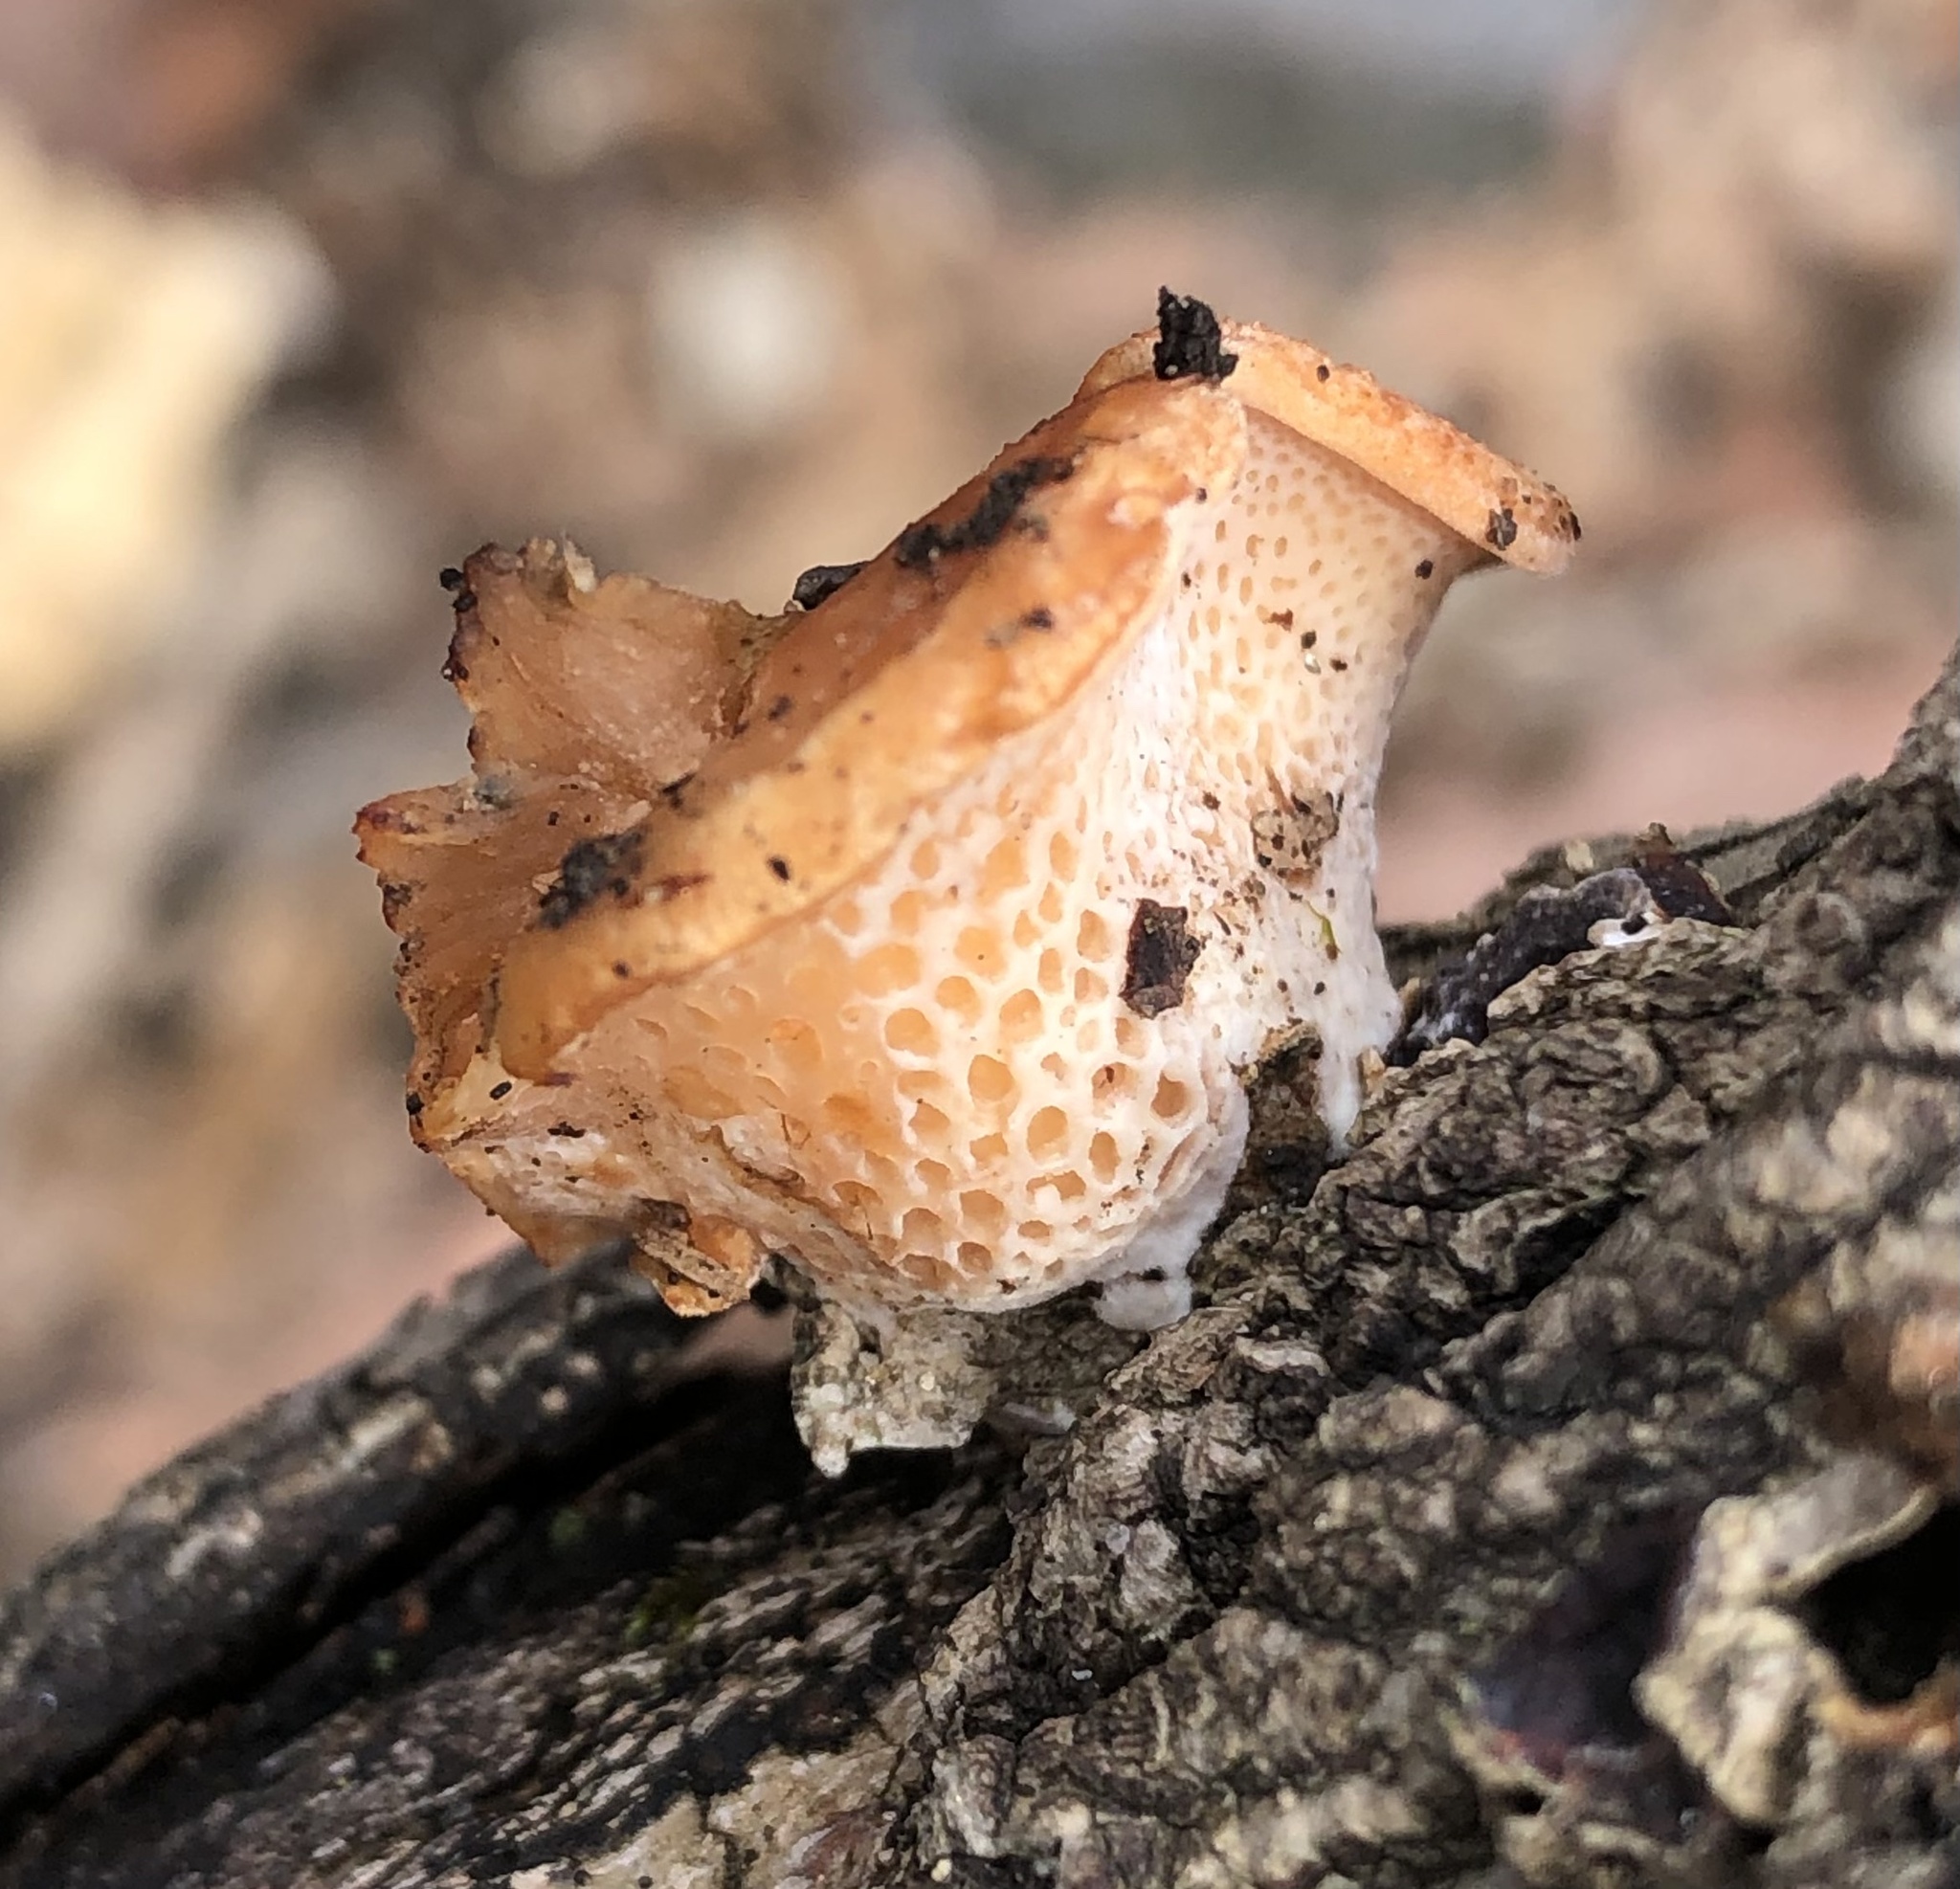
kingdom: Fungi
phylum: Basidiomycota
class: Agaricomycetes
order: Polyporales
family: Polyporaceae
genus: Neofavolus
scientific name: Neofavolus alveolaris
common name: Hexagonal-pored polypore
